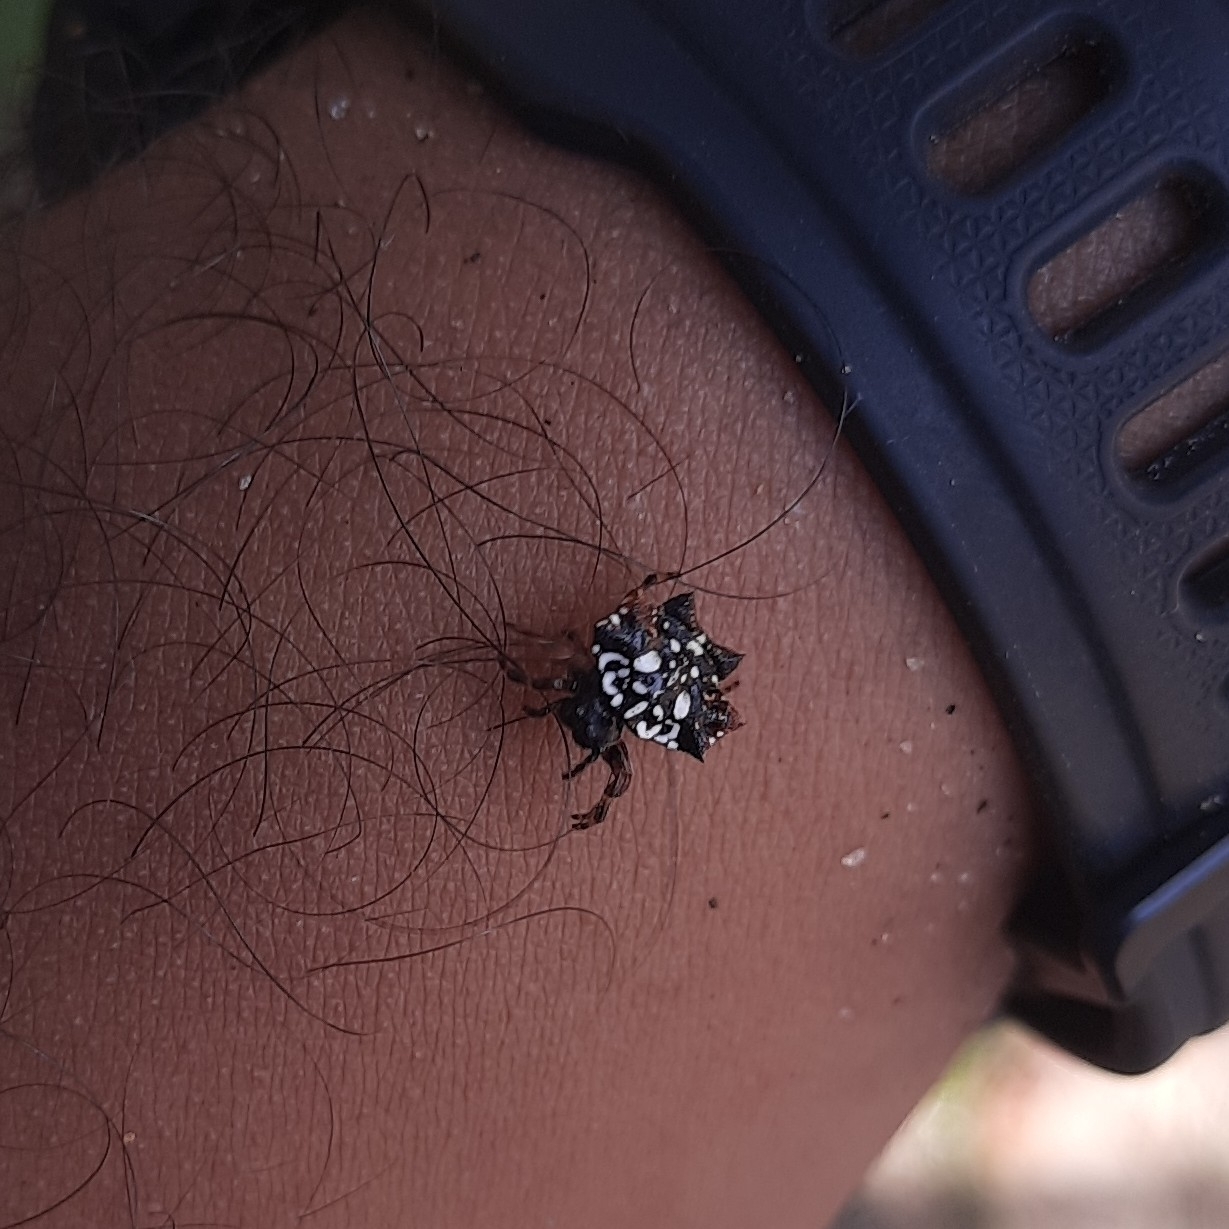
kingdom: Animalia
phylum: Arthropoda
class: Arachnida
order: Araneae
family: Araneidae
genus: Thelacantha
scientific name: Thelacantha brevispina
